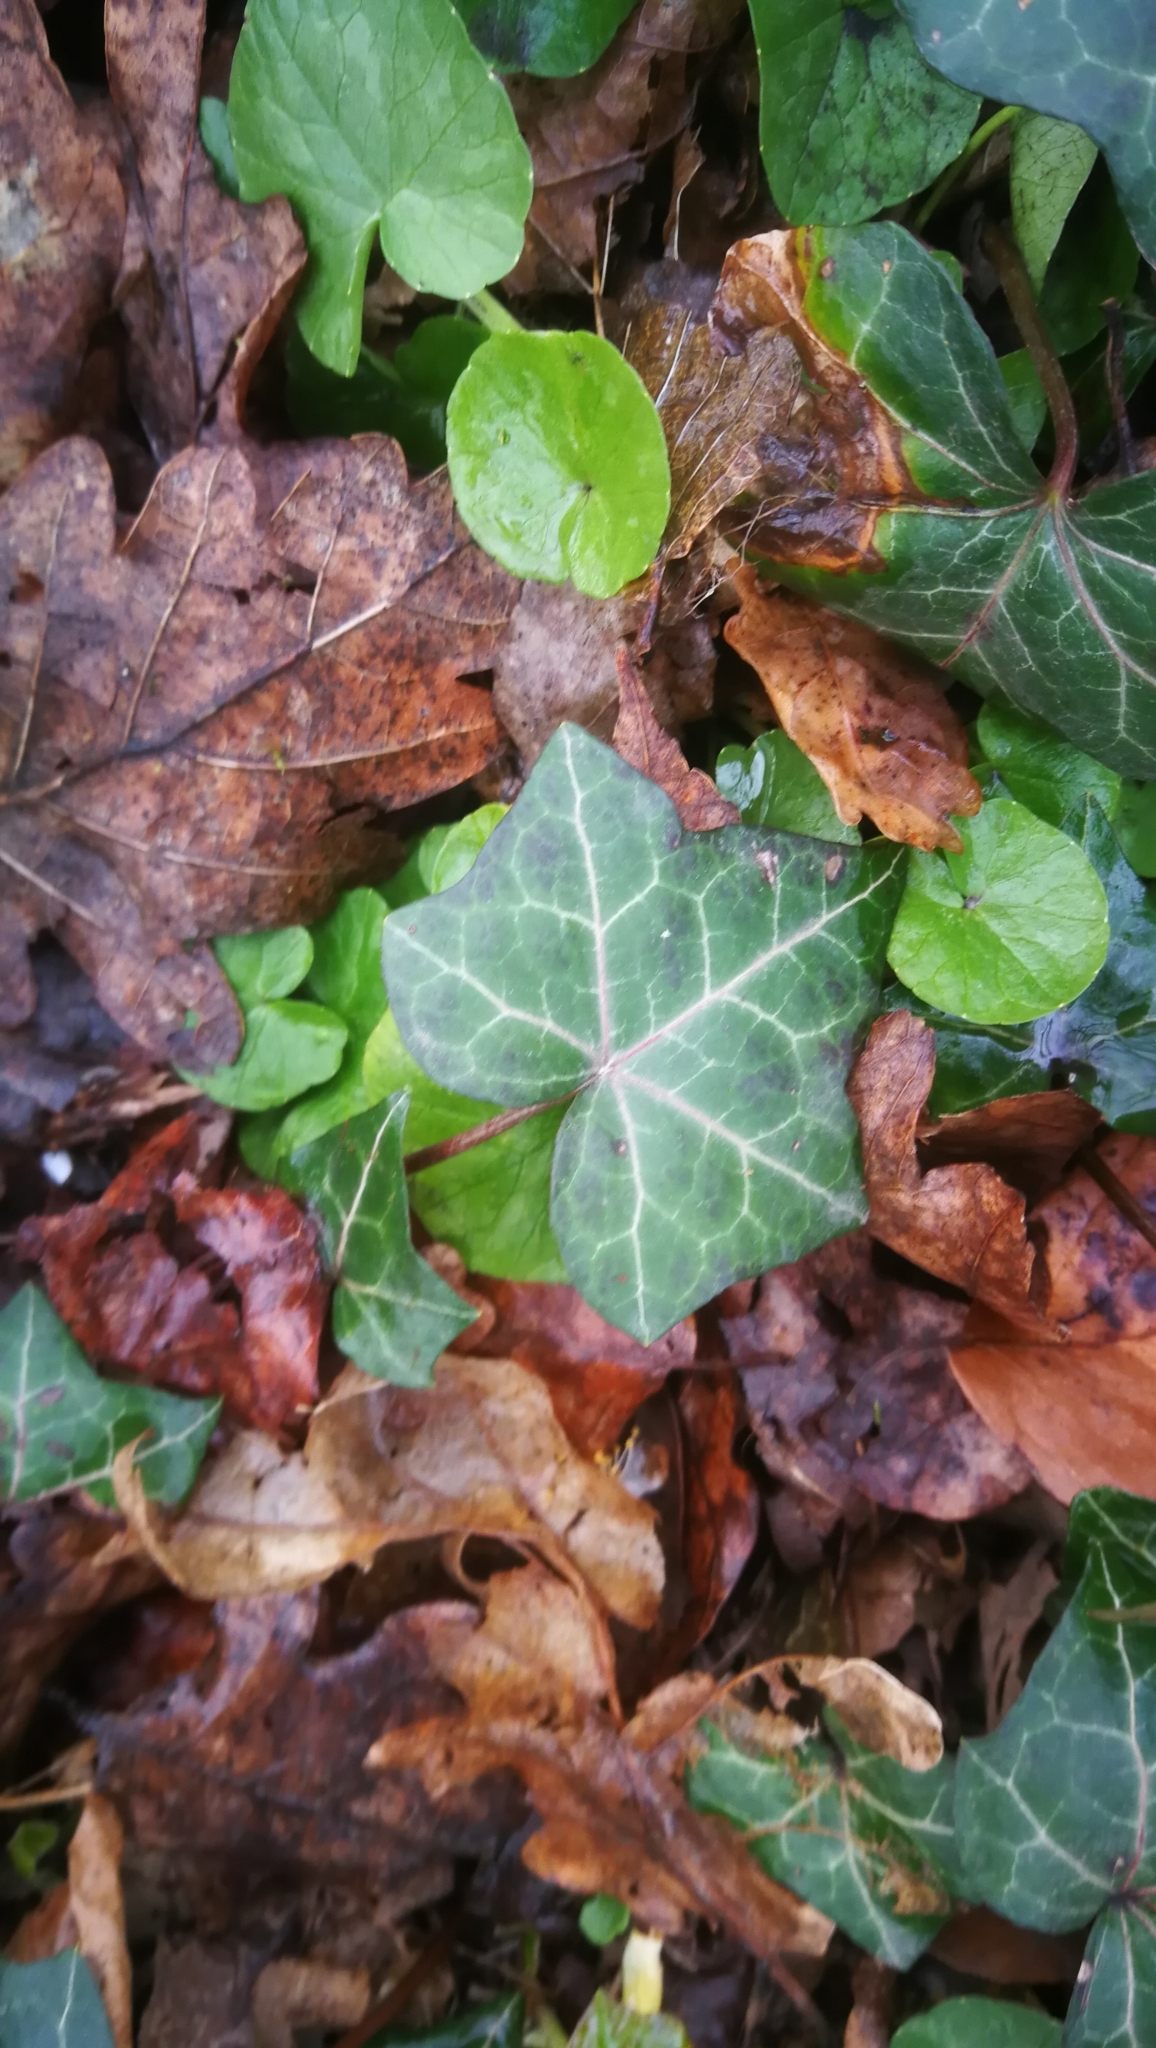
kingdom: Plantae
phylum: Tracheophyta
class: Magnoliopsida
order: Apiales
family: Araliaceae
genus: Hedera
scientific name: Hedera helix
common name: Ivy
